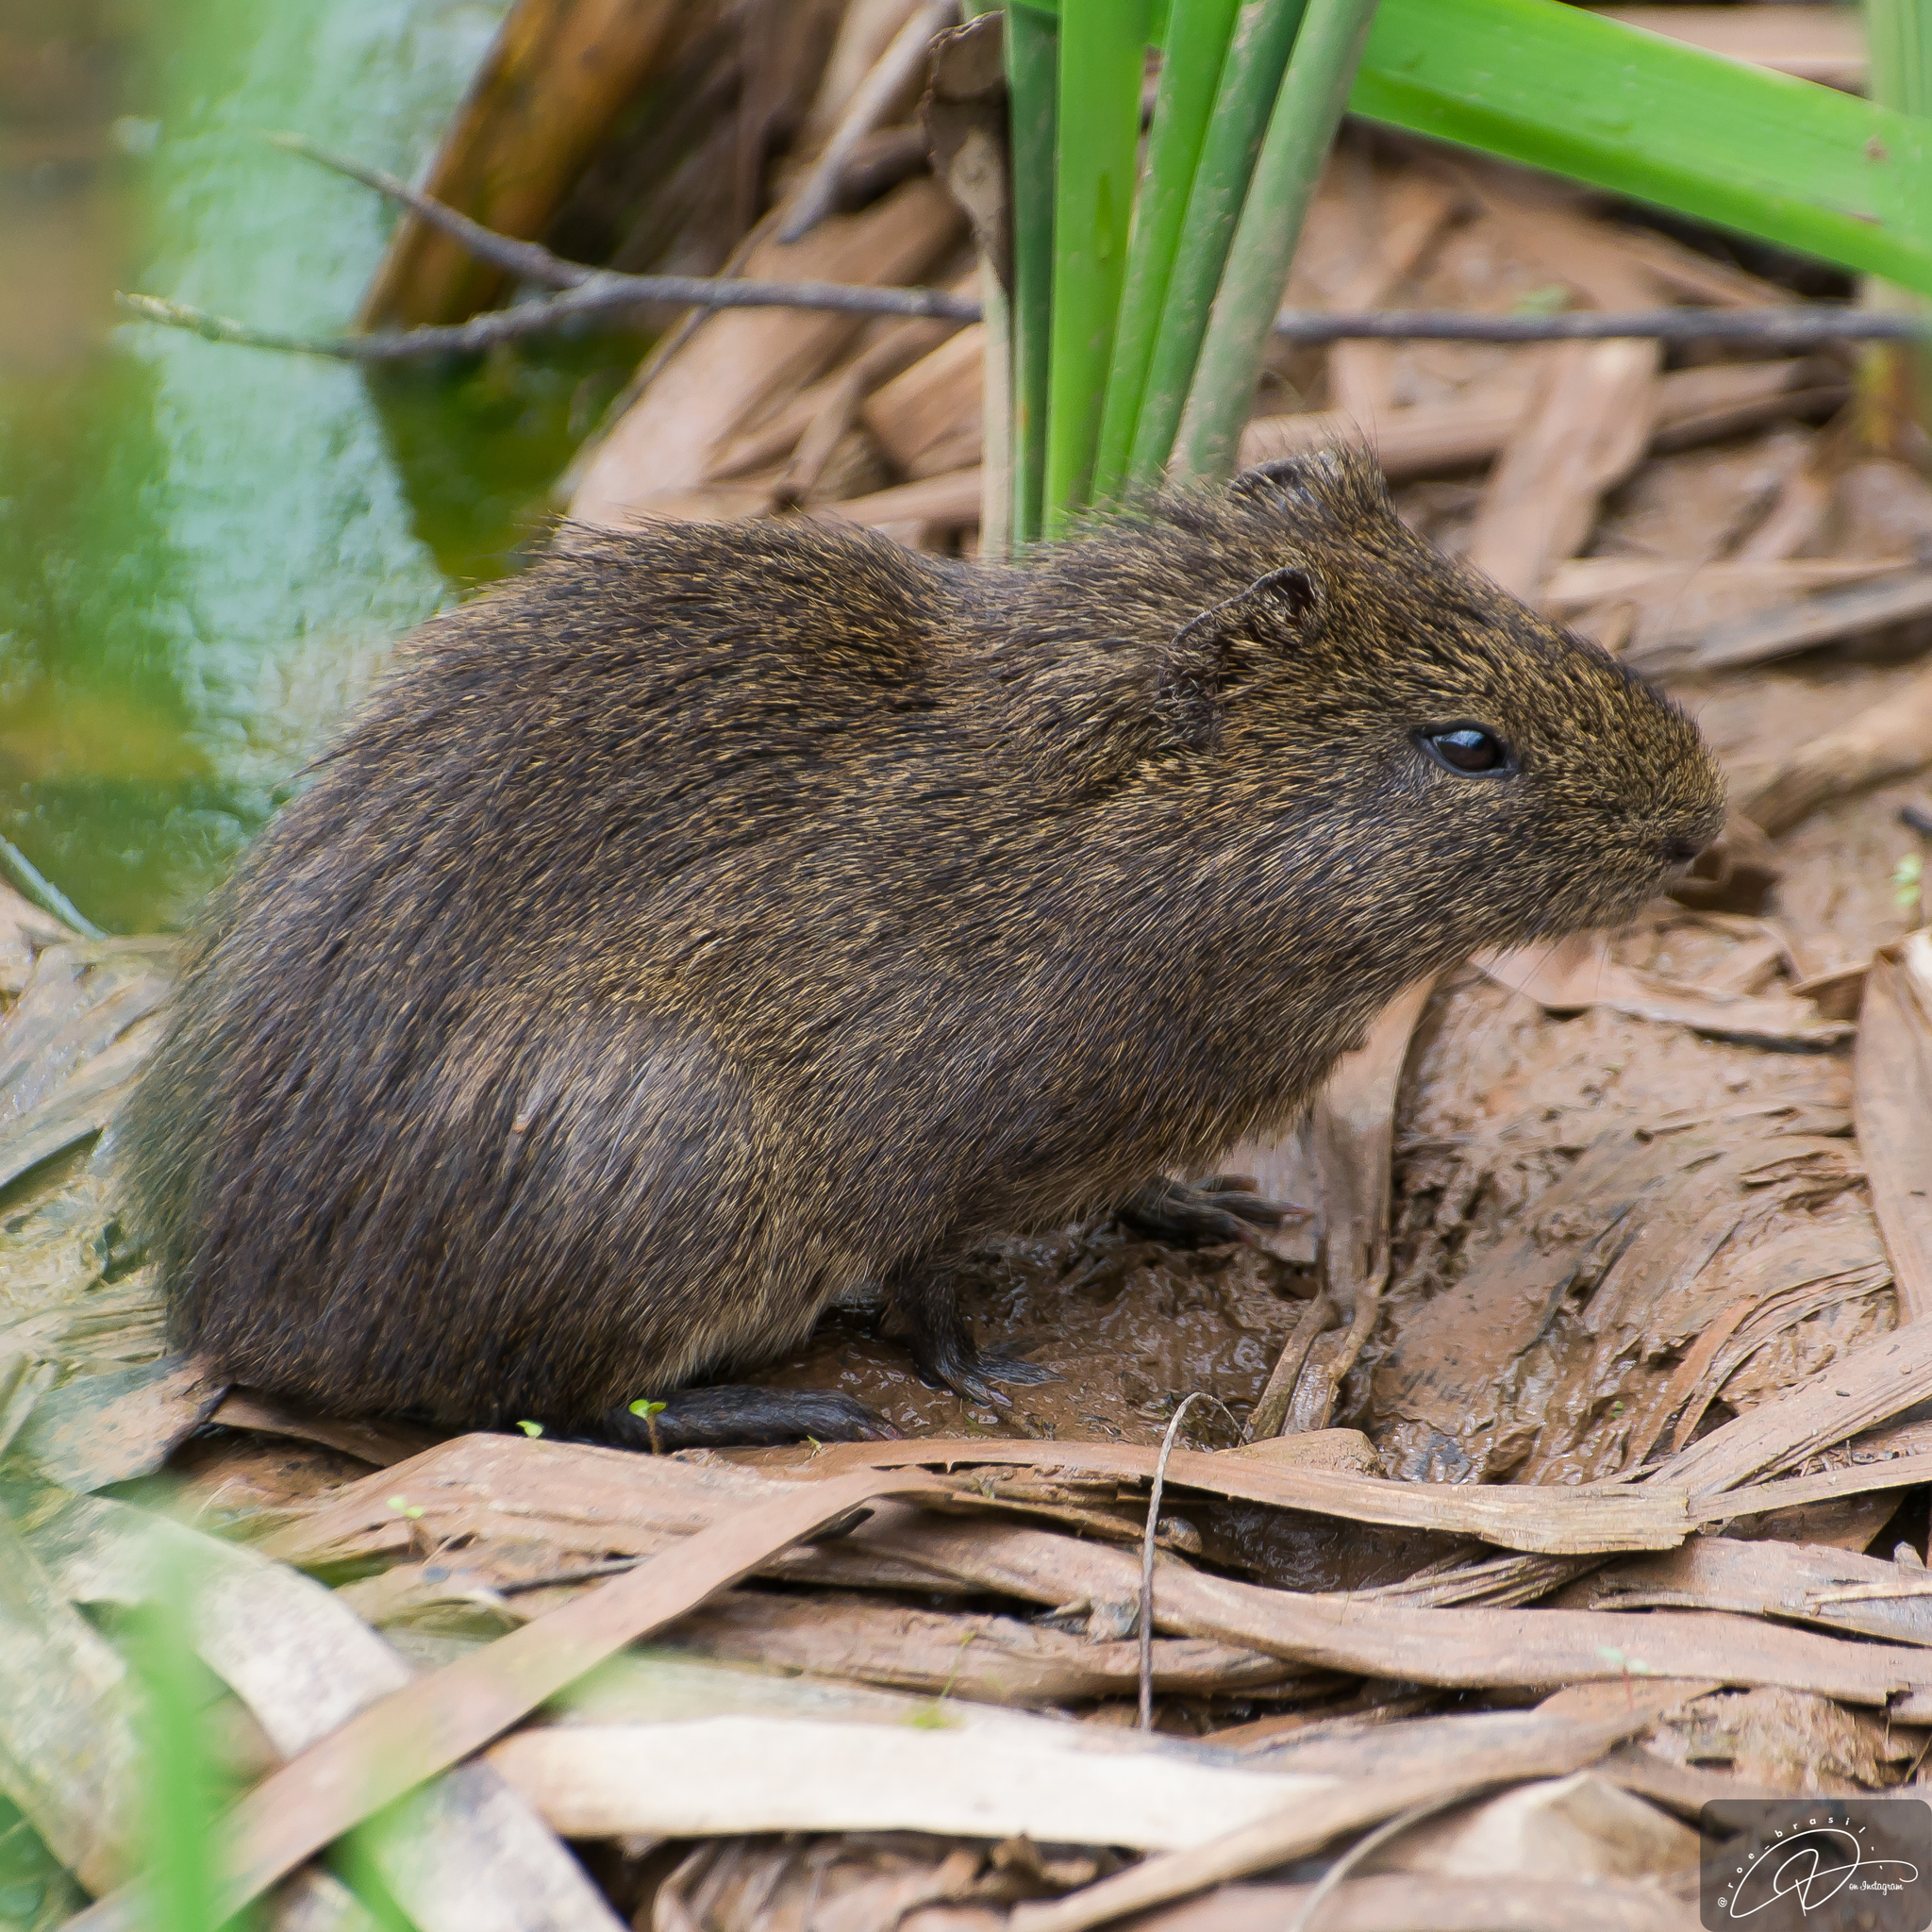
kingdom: Animalia
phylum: Chordata
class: Mammalia
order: Rodentia
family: Caviidae
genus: Cavia
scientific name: Cavia aperea
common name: Brazilian guinea pig
